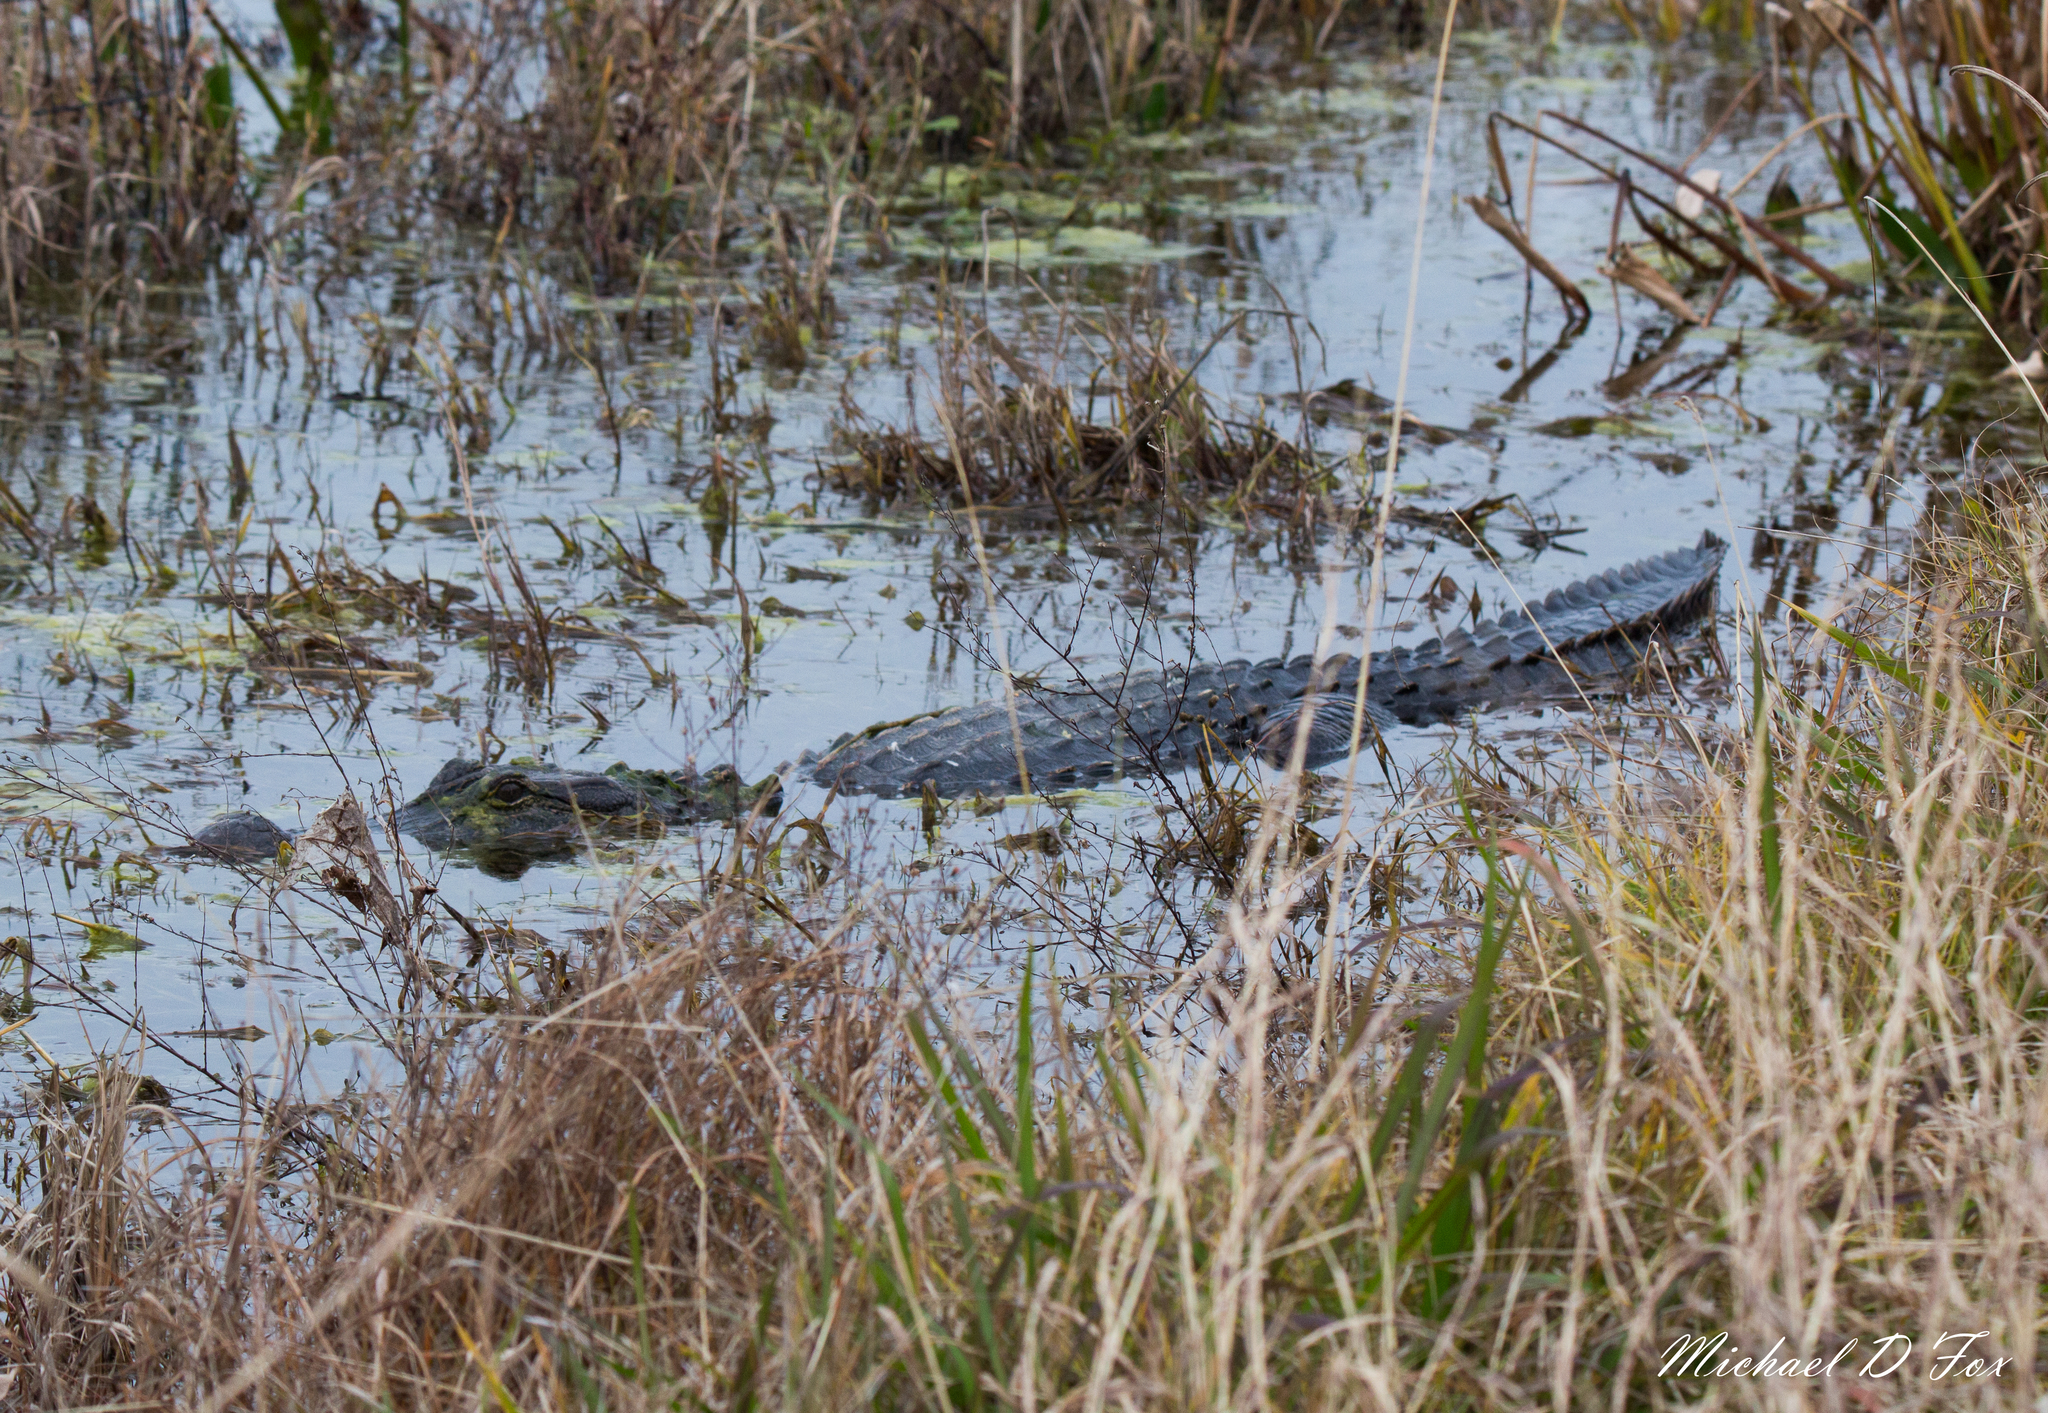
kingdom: Animalia
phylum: Chordata
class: Crocodylia
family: Alligatoridae
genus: Alligator
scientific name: Alligator mississippiensis
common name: American alligator
